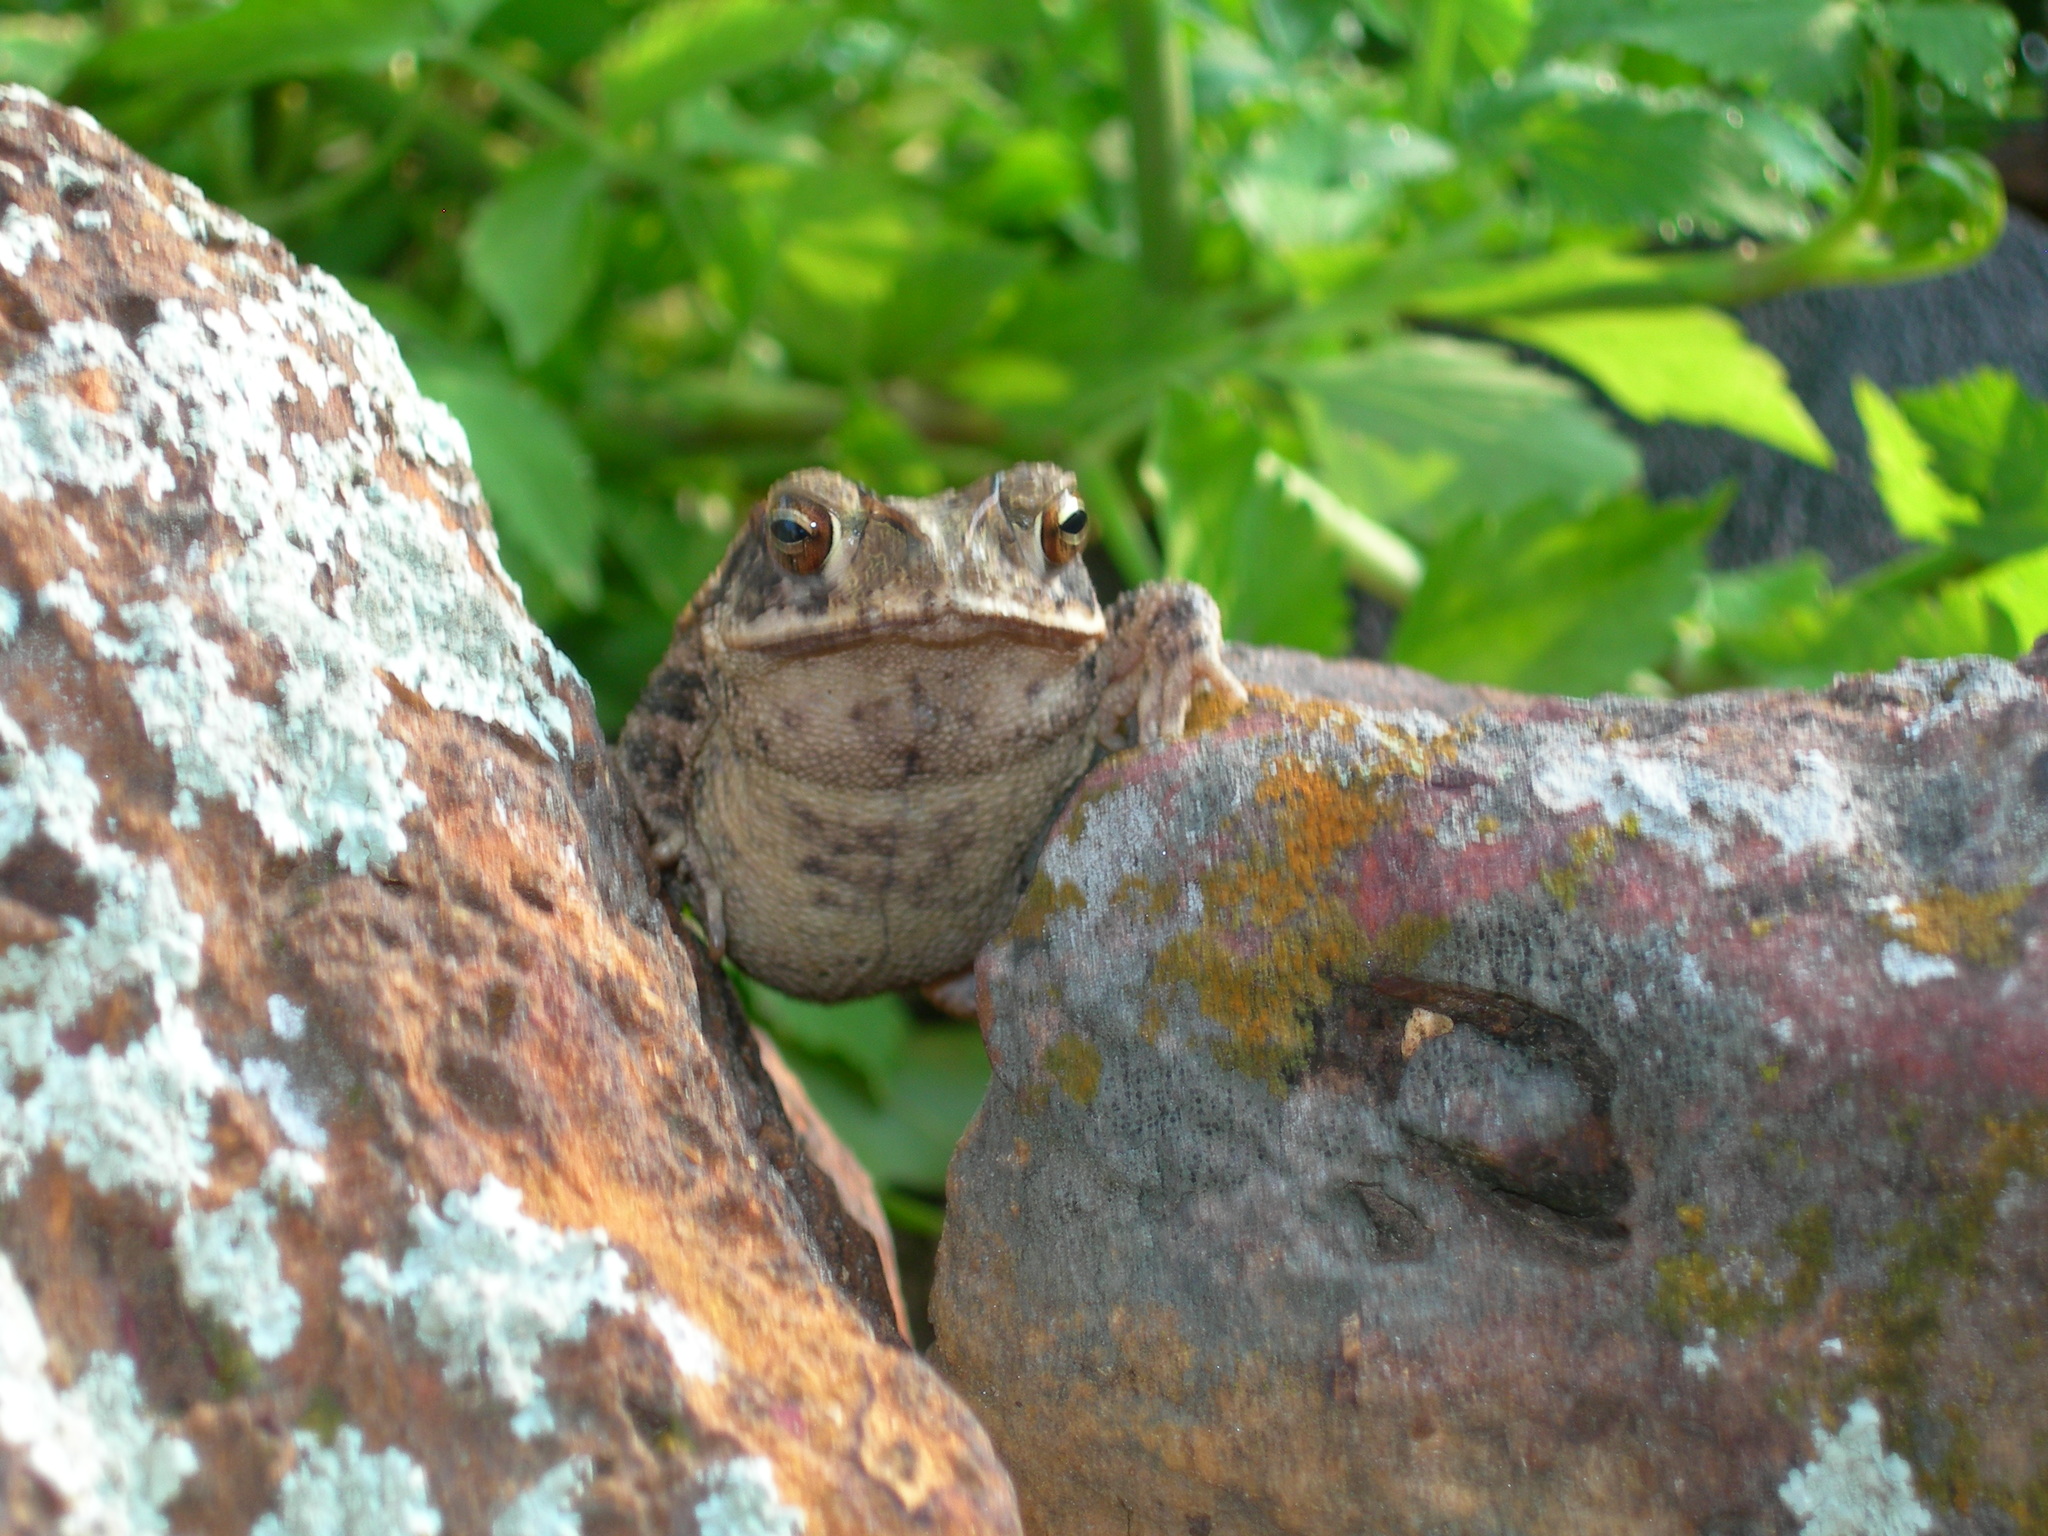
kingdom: Animalia
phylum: Chordata
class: Amphibia
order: Anura
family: Bufonidae
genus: Incilius
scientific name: Incilius nebulifer
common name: Gulf coast toad
